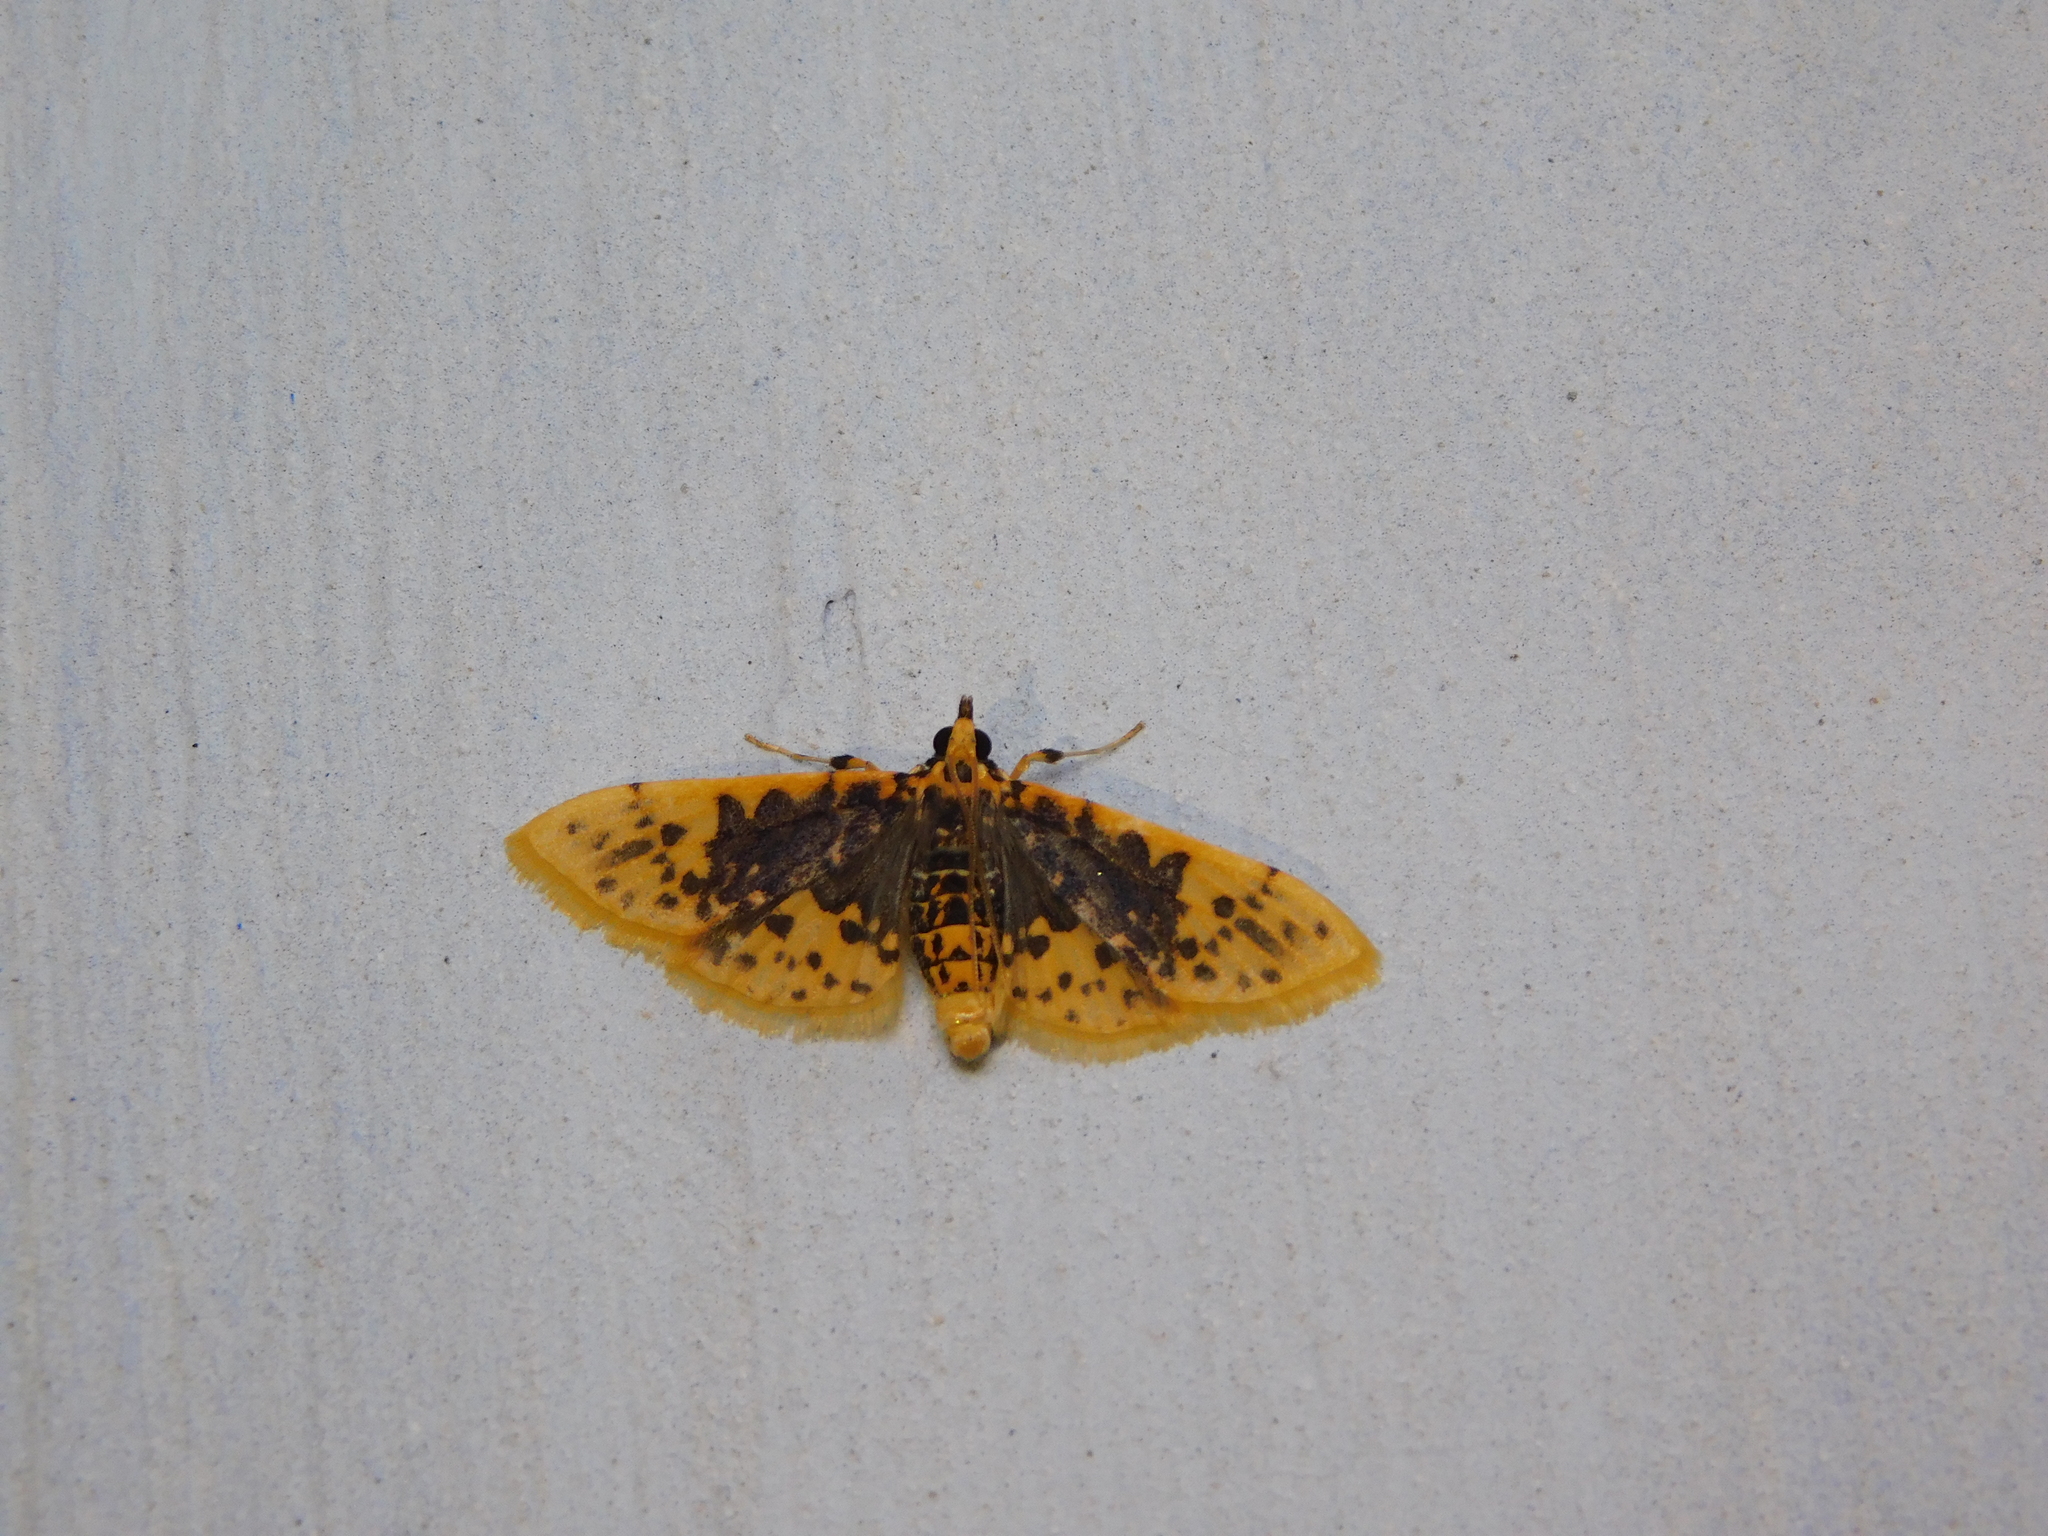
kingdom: Animalia
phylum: Arthropoda
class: Insecta
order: Lepidoptera
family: Crambidae
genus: Cynaeda
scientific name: Cynaeda
